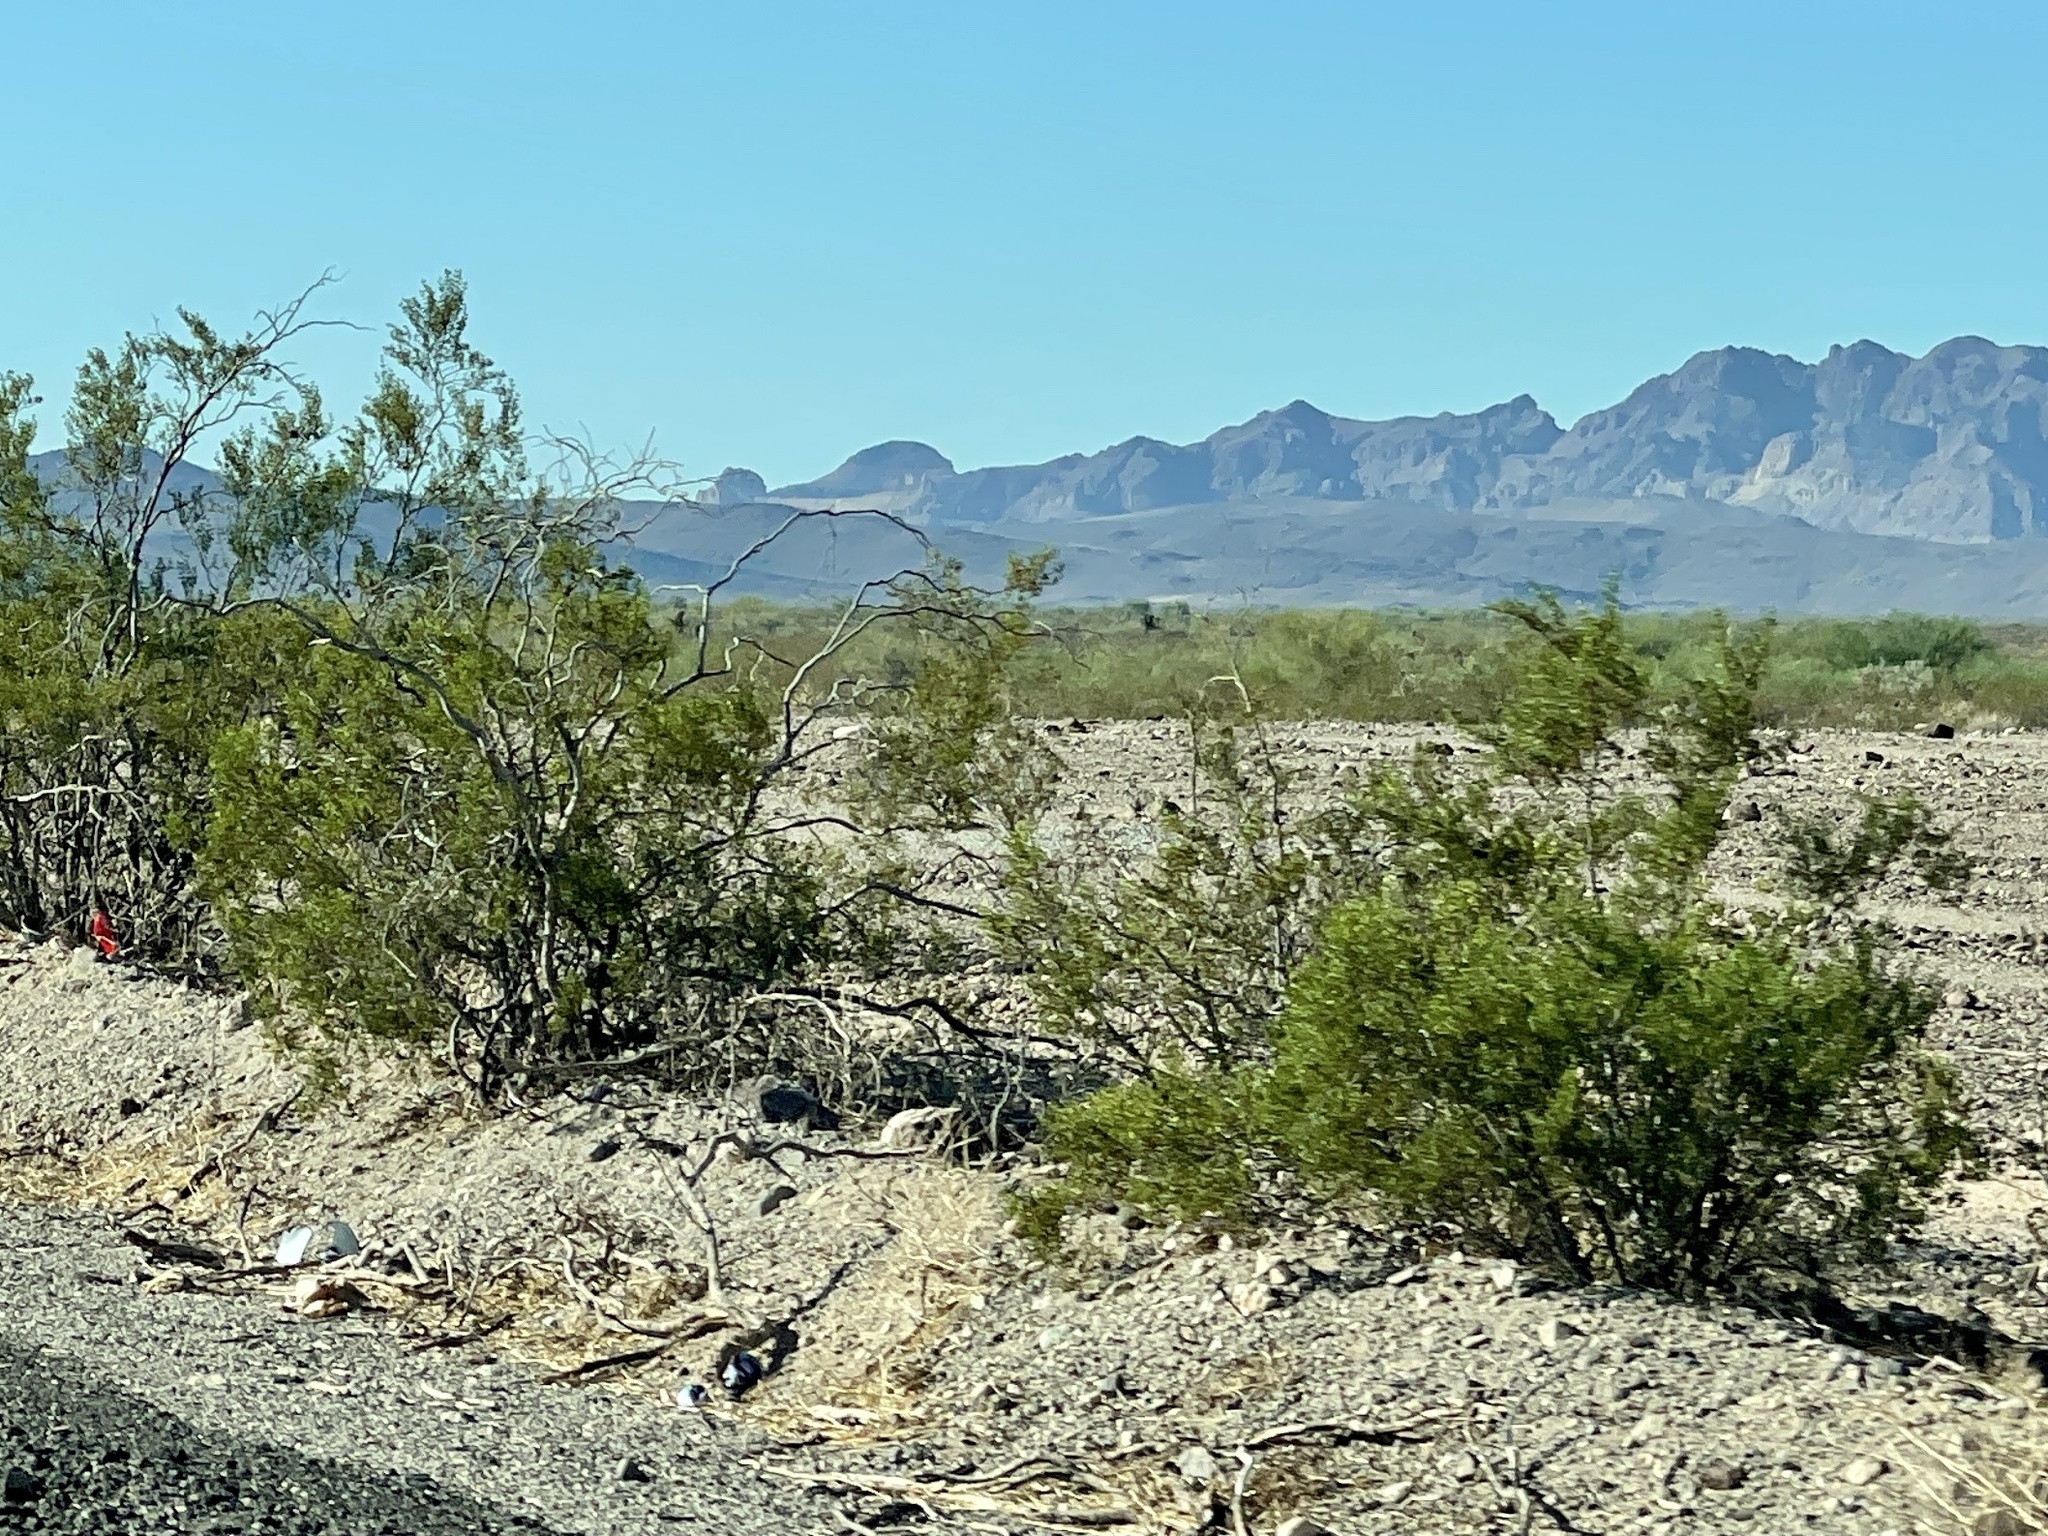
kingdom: Plantae
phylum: Tracheophyta
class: Magnoliopsida
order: Zygophyllales
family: Zygophyllaceae
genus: Larrea
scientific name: Larrea tridentata
